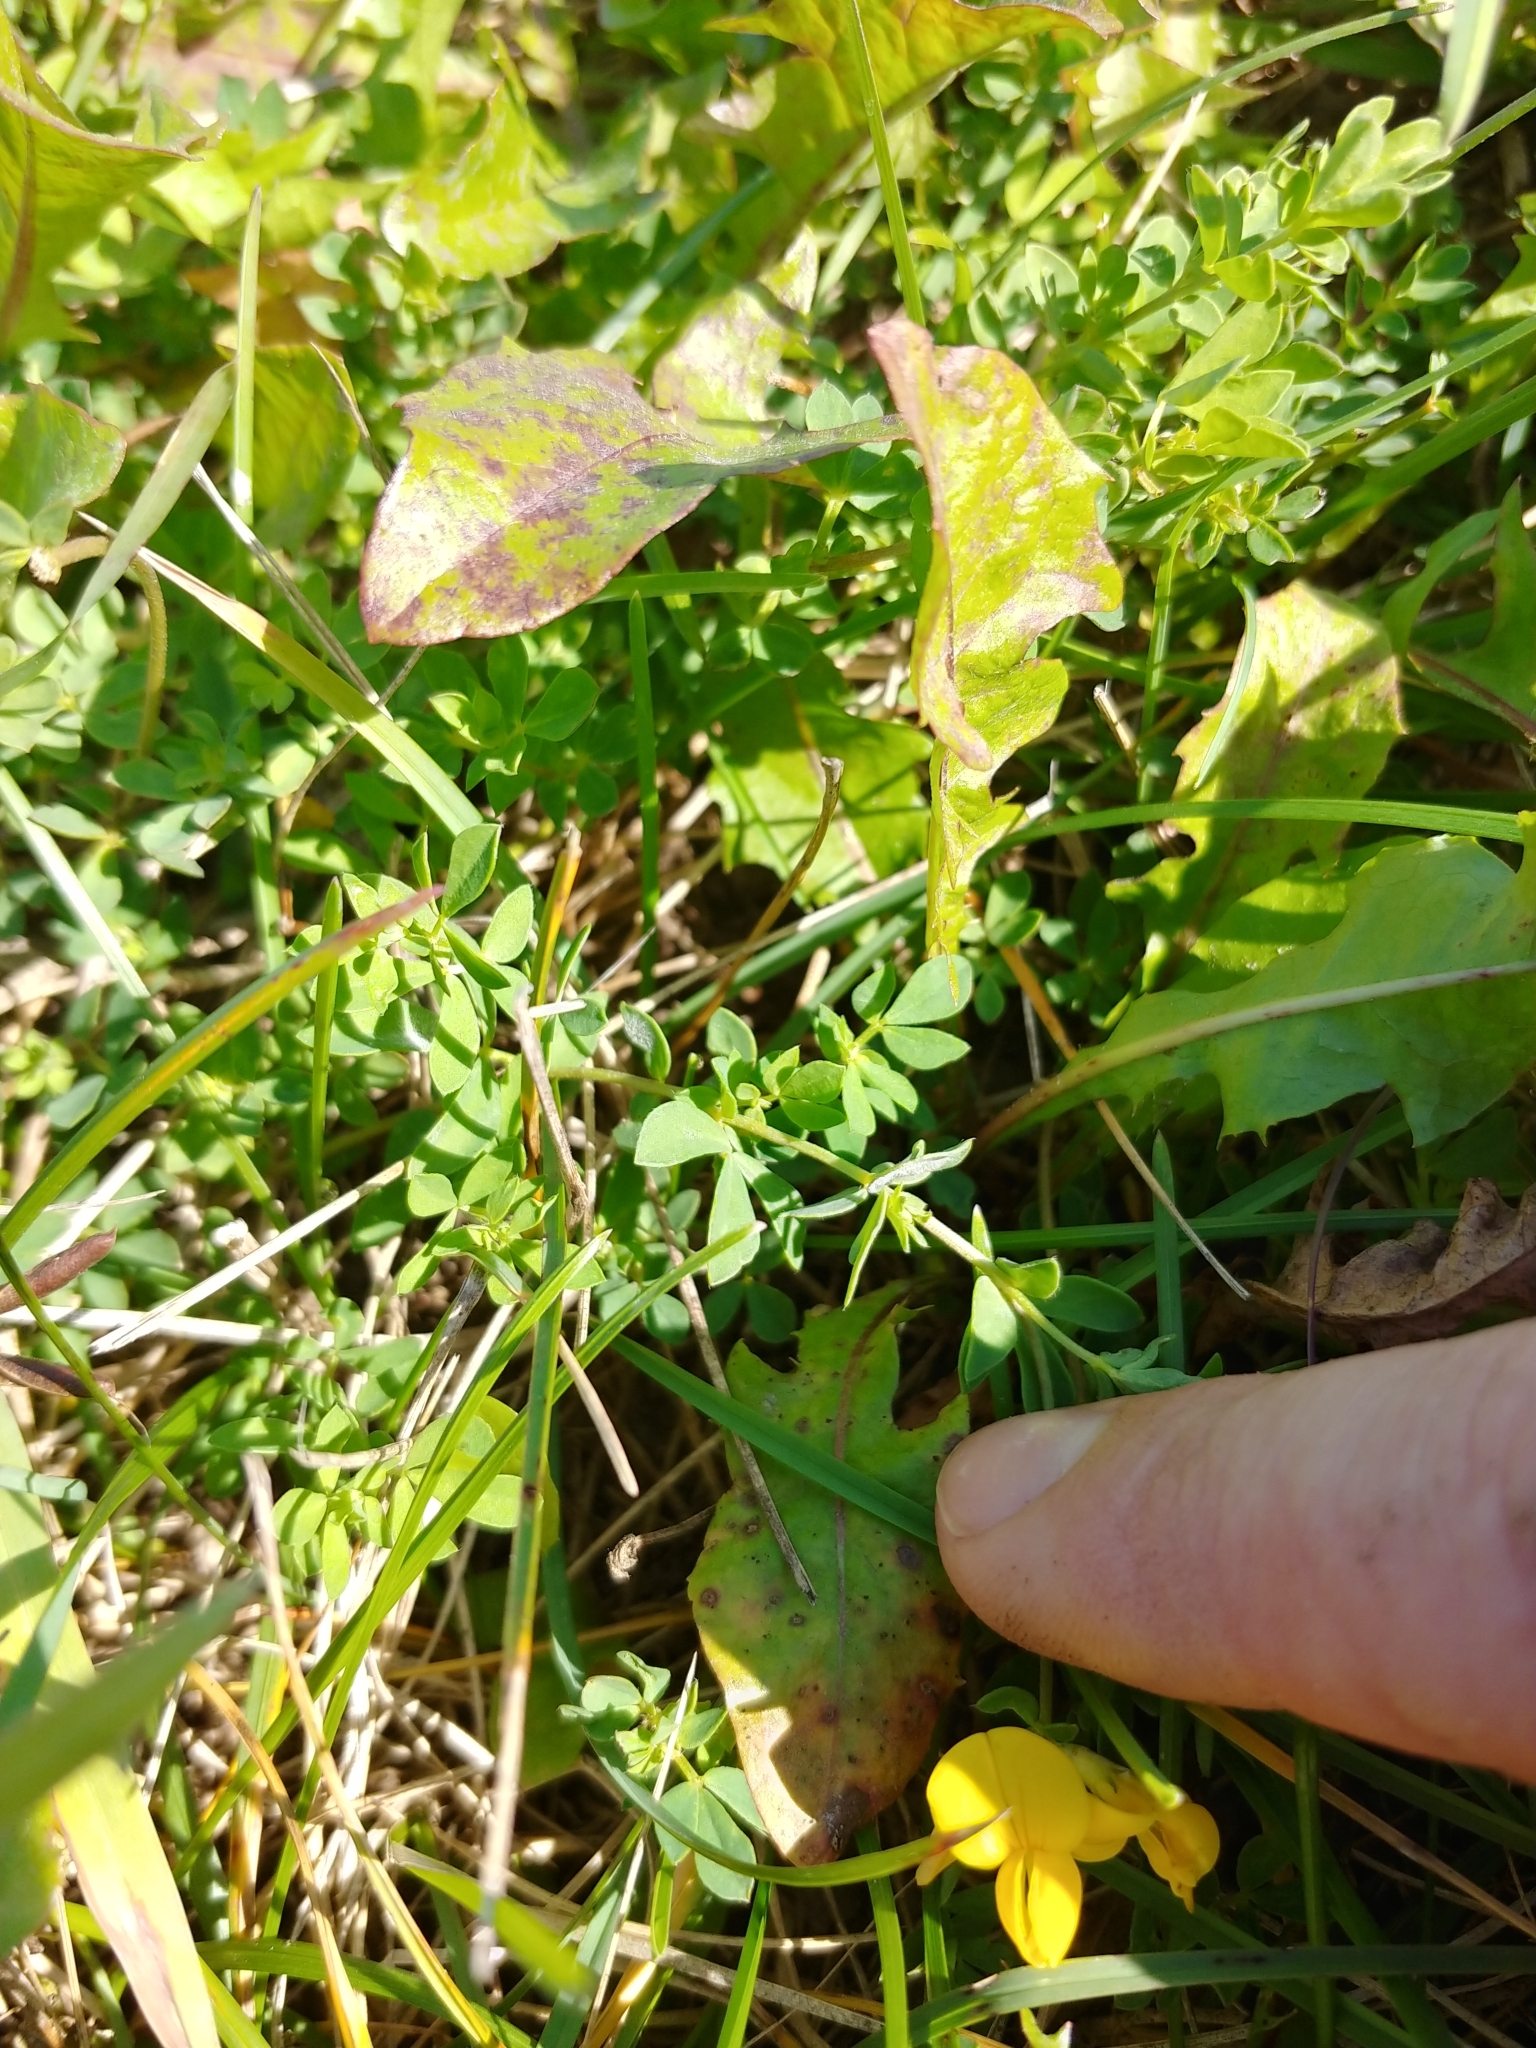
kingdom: Plantae
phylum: Tracheophyta
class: Magnoliopsida
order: Fabales
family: Fabaceae
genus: Lotus
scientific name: Lotus corniculatus
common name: Common bird's-foot-trefoil
